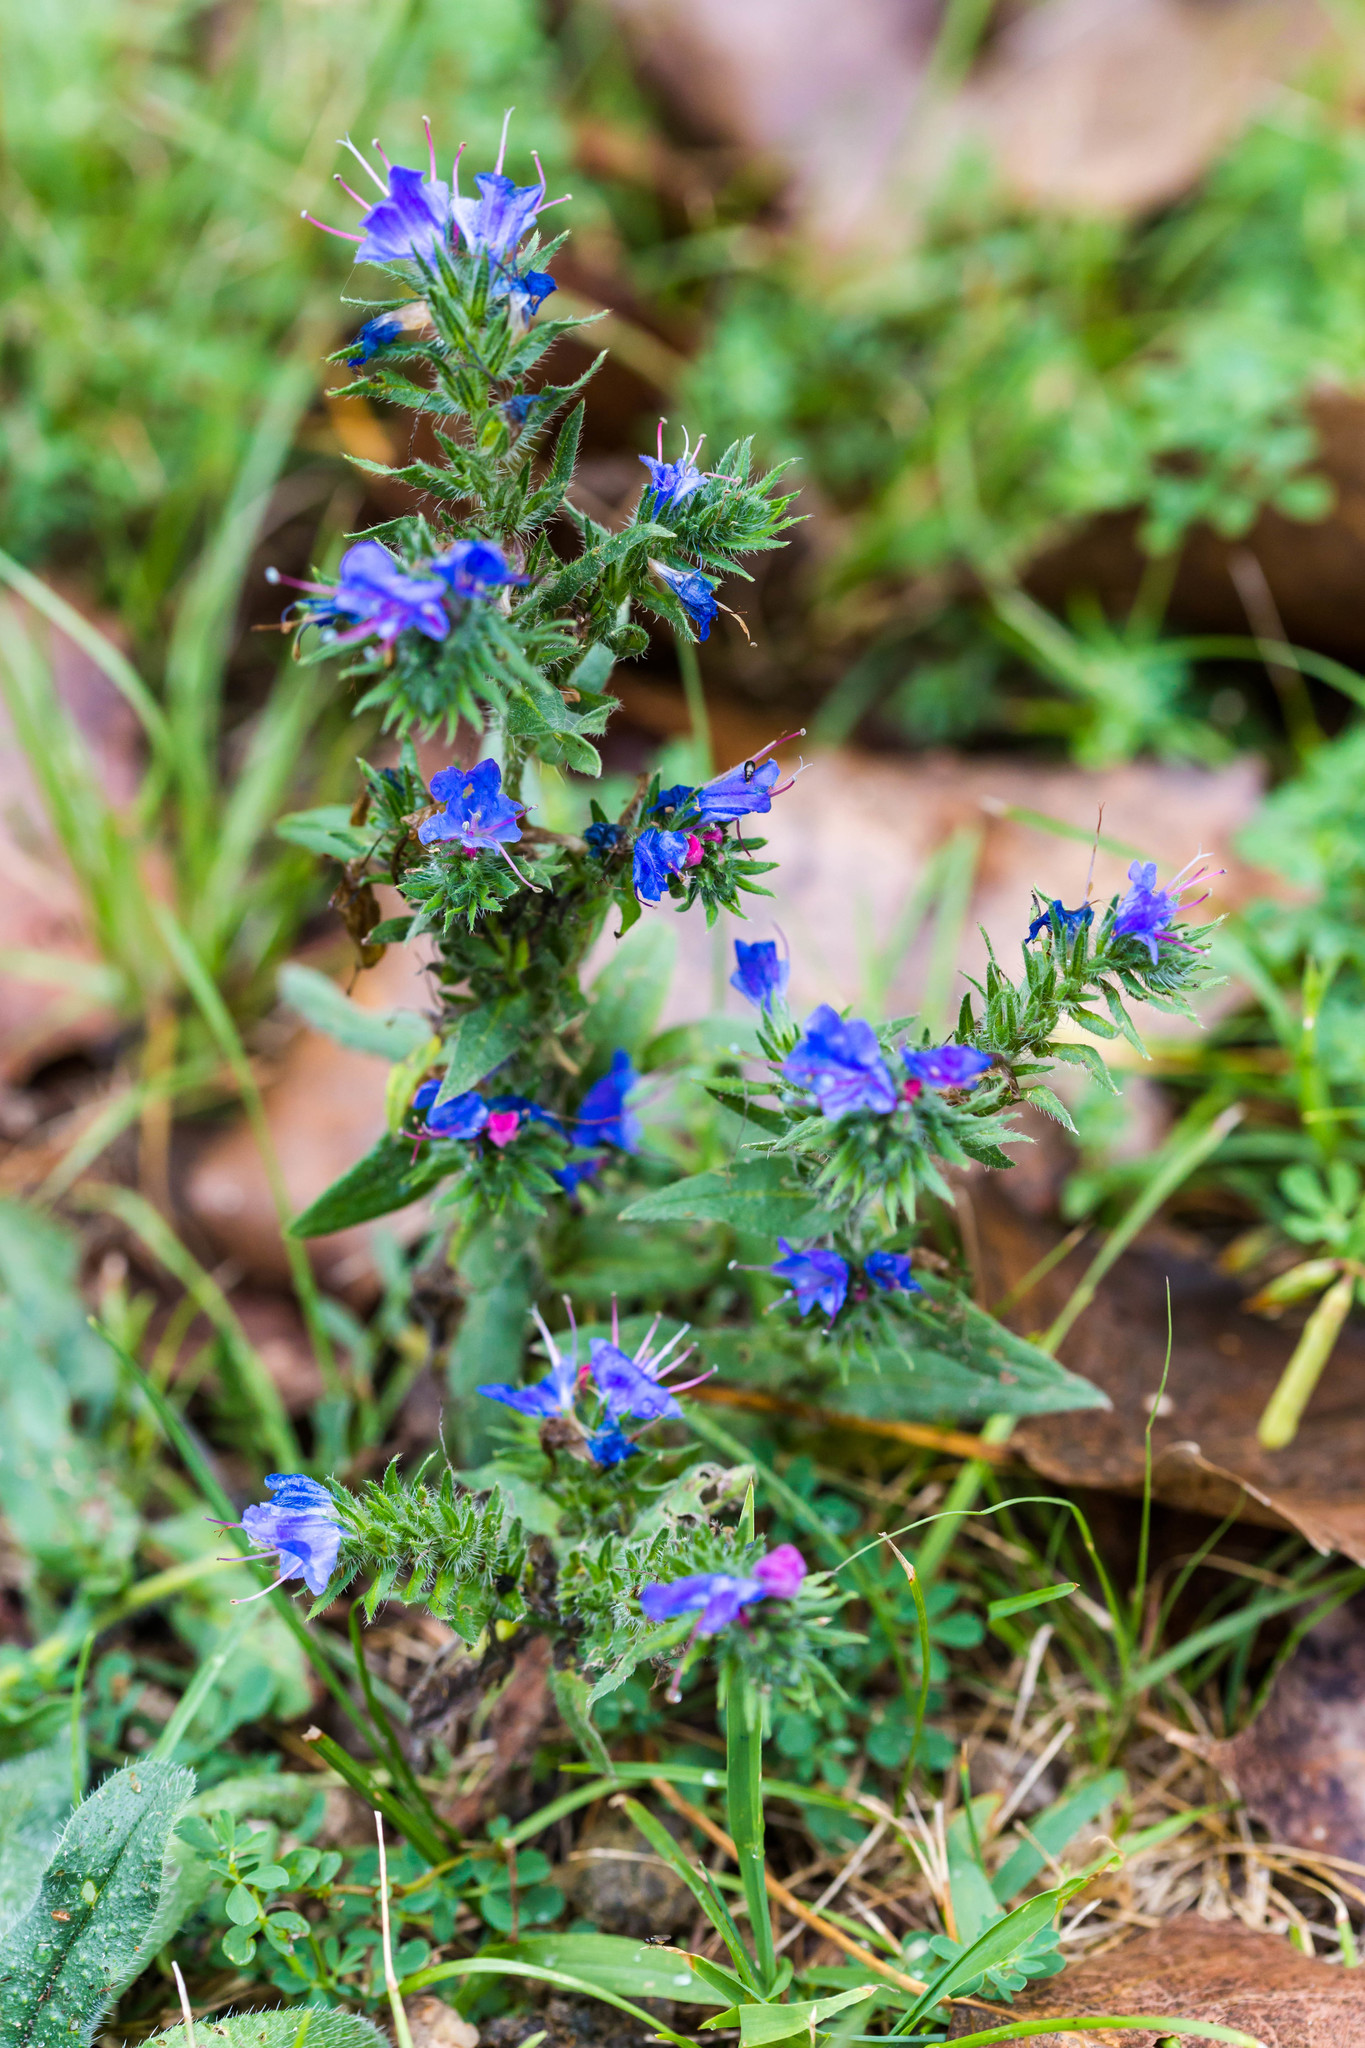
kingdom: Plantae
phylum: Tracheophyta
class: Magnoliopsida
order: Boraginales
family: Boraginaceae
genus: Echium
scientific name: Echium vulgare
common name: Common viper's bugloss
